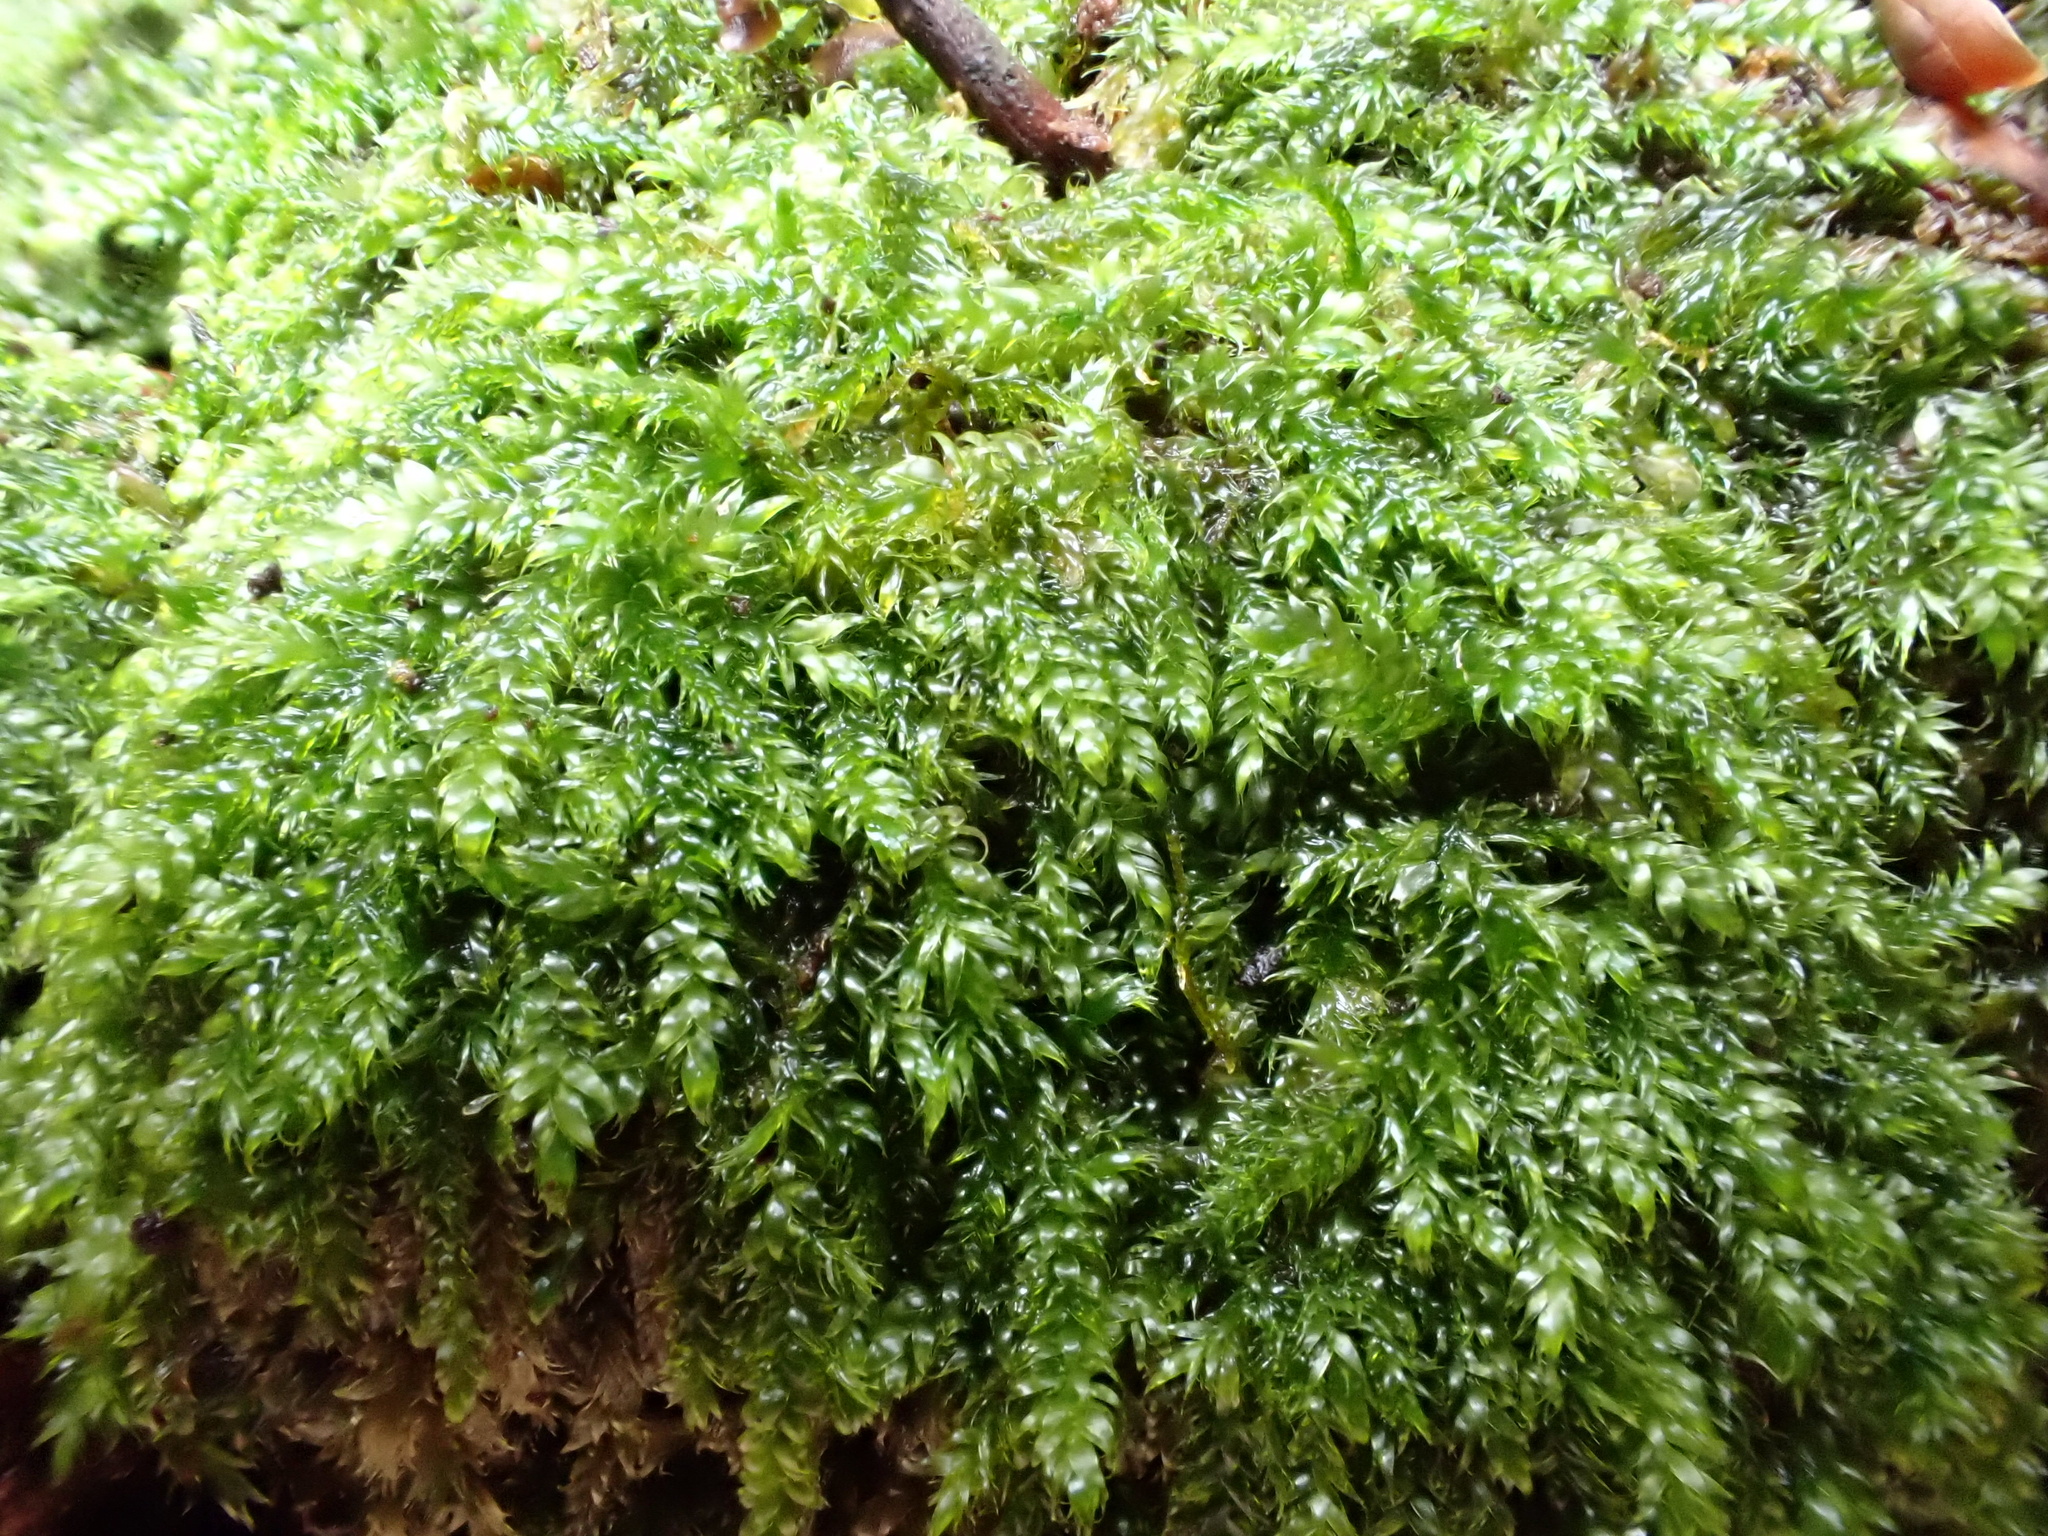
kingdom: Plantae
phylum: Bryophyta
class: Bryopsida
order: Hypnales
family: Hypnaceae
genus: Hypnum
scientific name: Hypnum cupressiforme
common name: Cypress-leaved plait-moss
